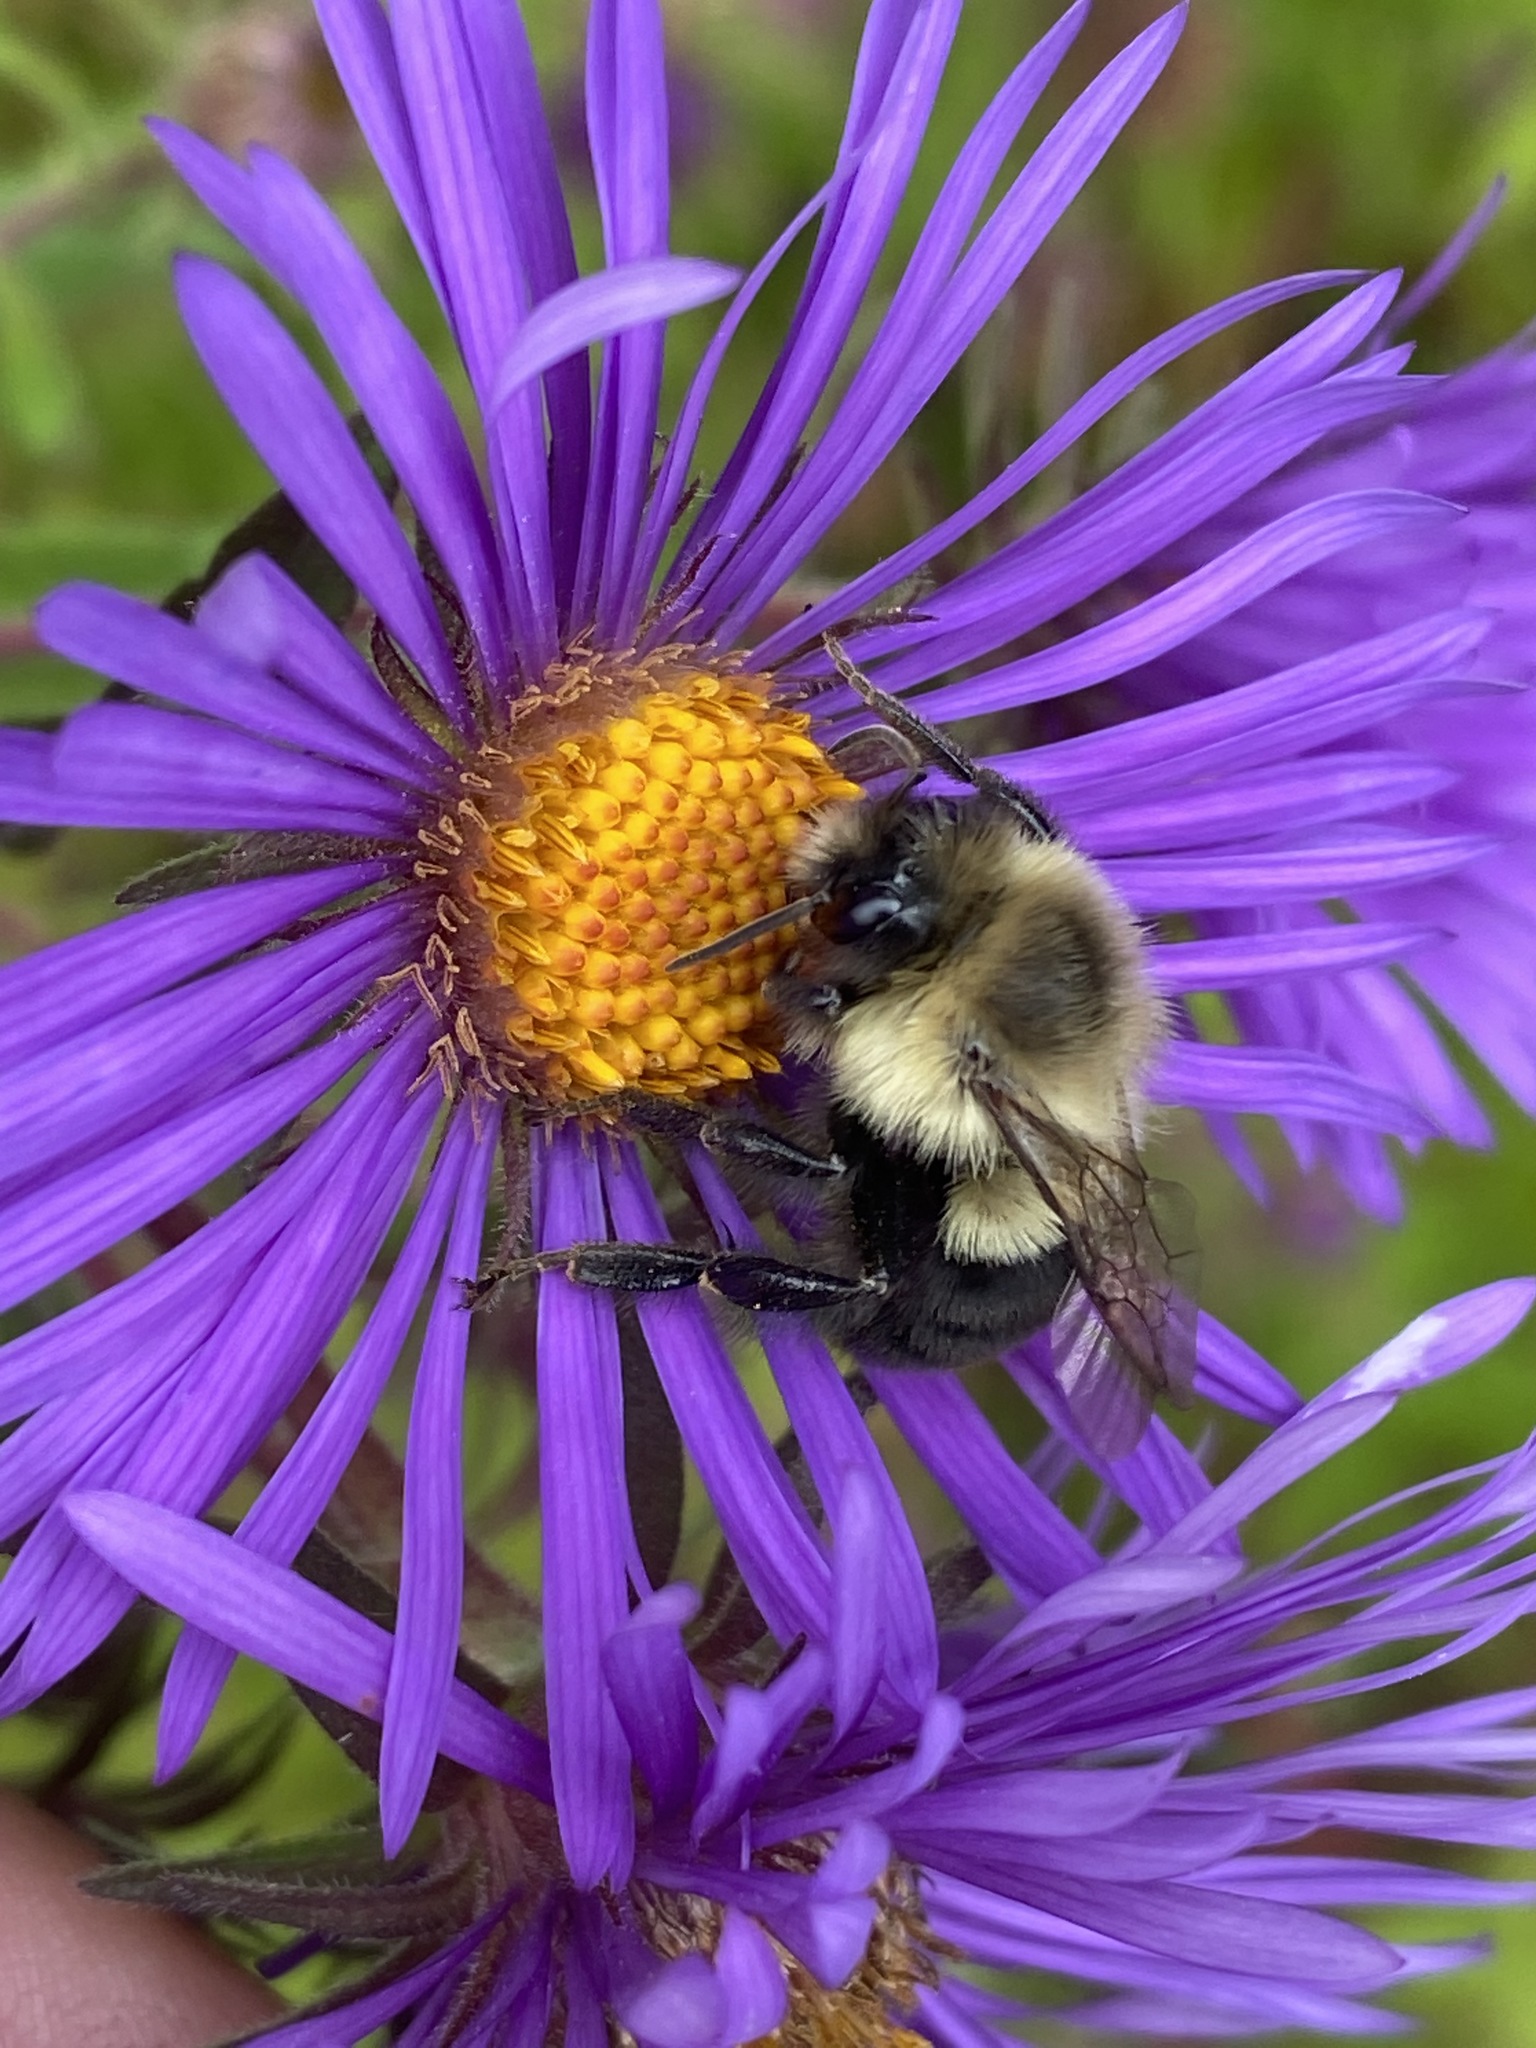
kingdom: Animalia
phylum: Arthropoda
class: Insecta
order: Hymenoptera
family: Apidae
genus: Bombus
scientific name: Bombus impatiens
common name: Common eastern bumble bee
